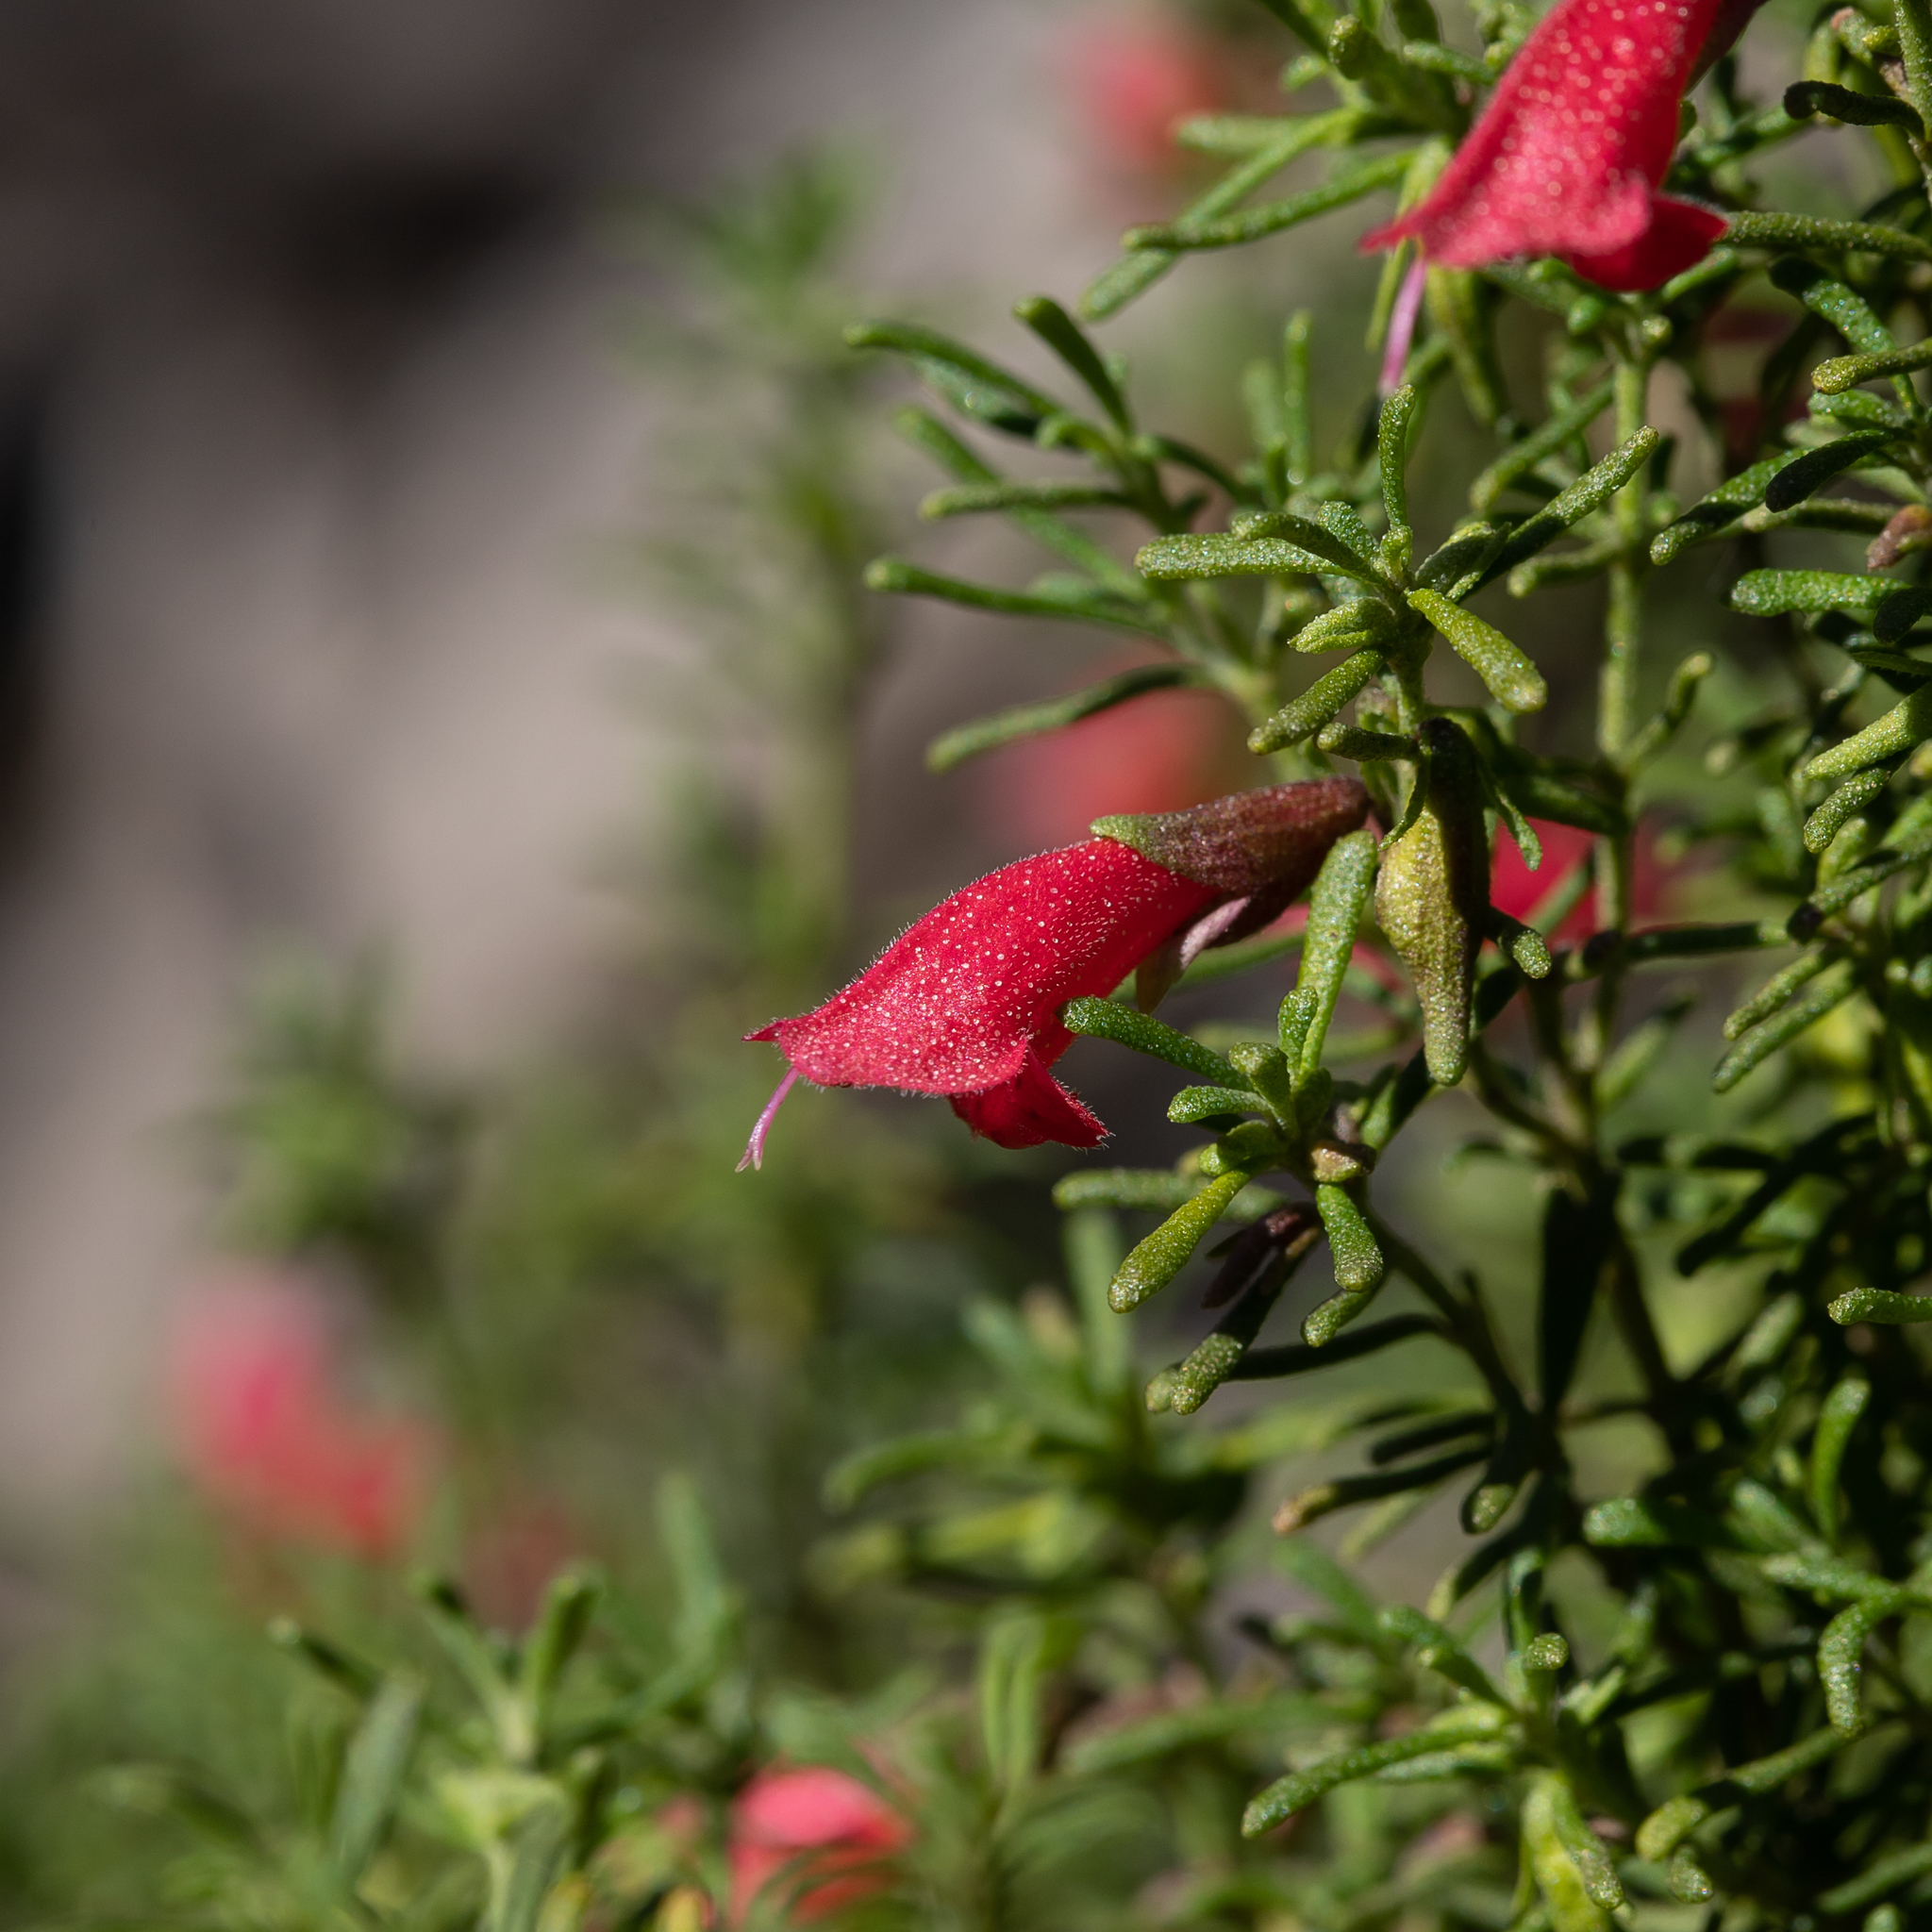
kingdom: Plantae
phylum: Tracheophyta
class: Magnoliopsida
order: Lamiales
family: Lamiaceae
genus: Prostanthera
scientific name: Prostanthera aspalathoides
